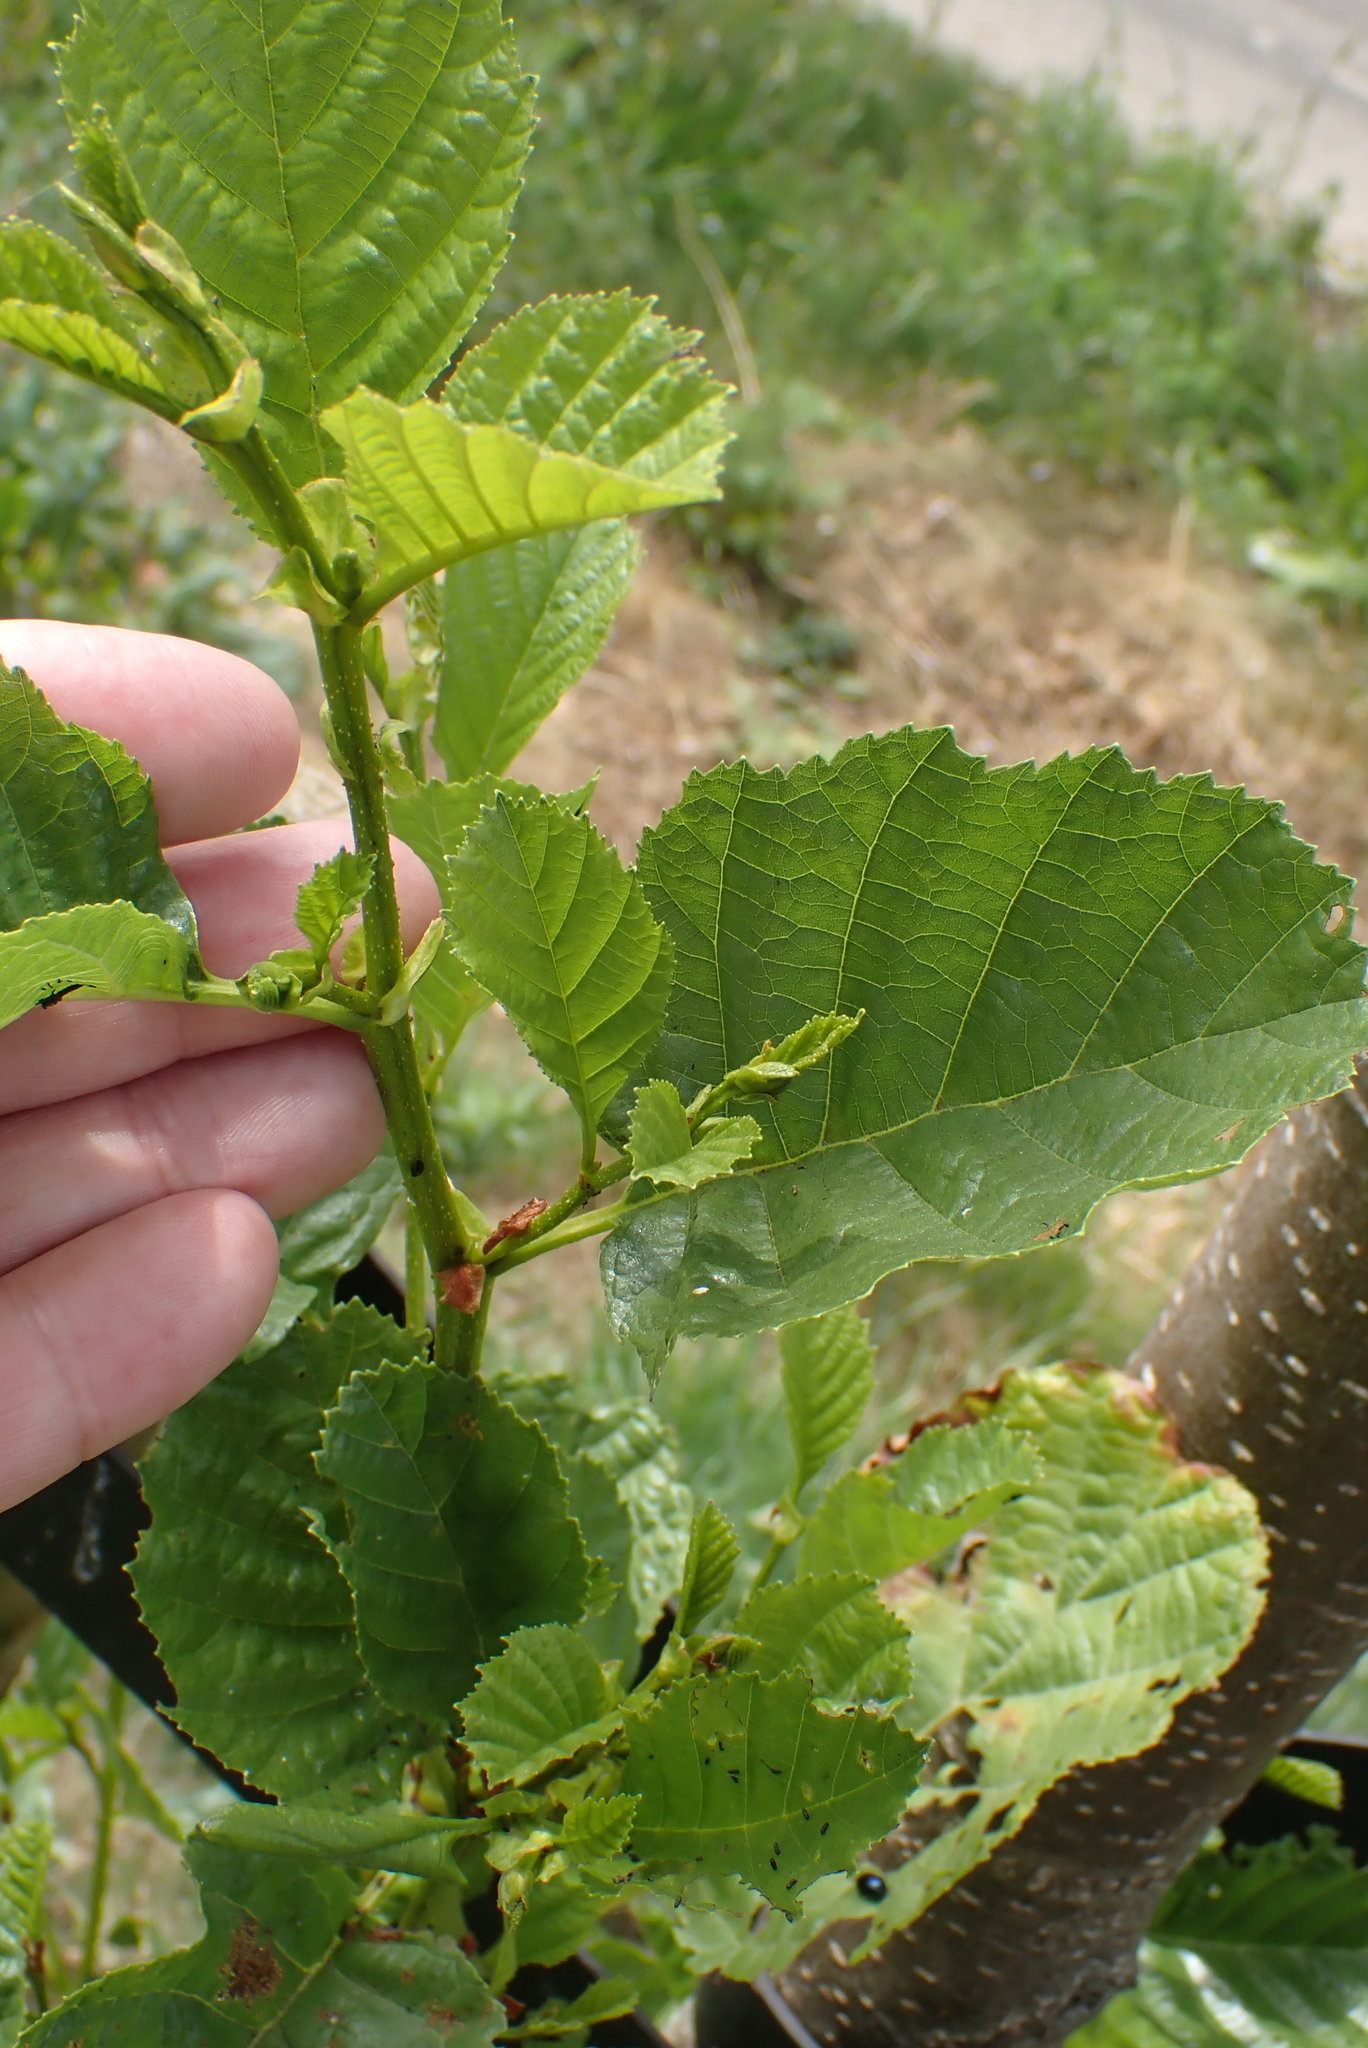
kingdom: Plantae
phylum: Tracheophyta
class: Magnoliopsida
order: Fagales
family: Betulaceae
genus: Alnus
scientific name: Alnus glutinosa
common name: Black alder
